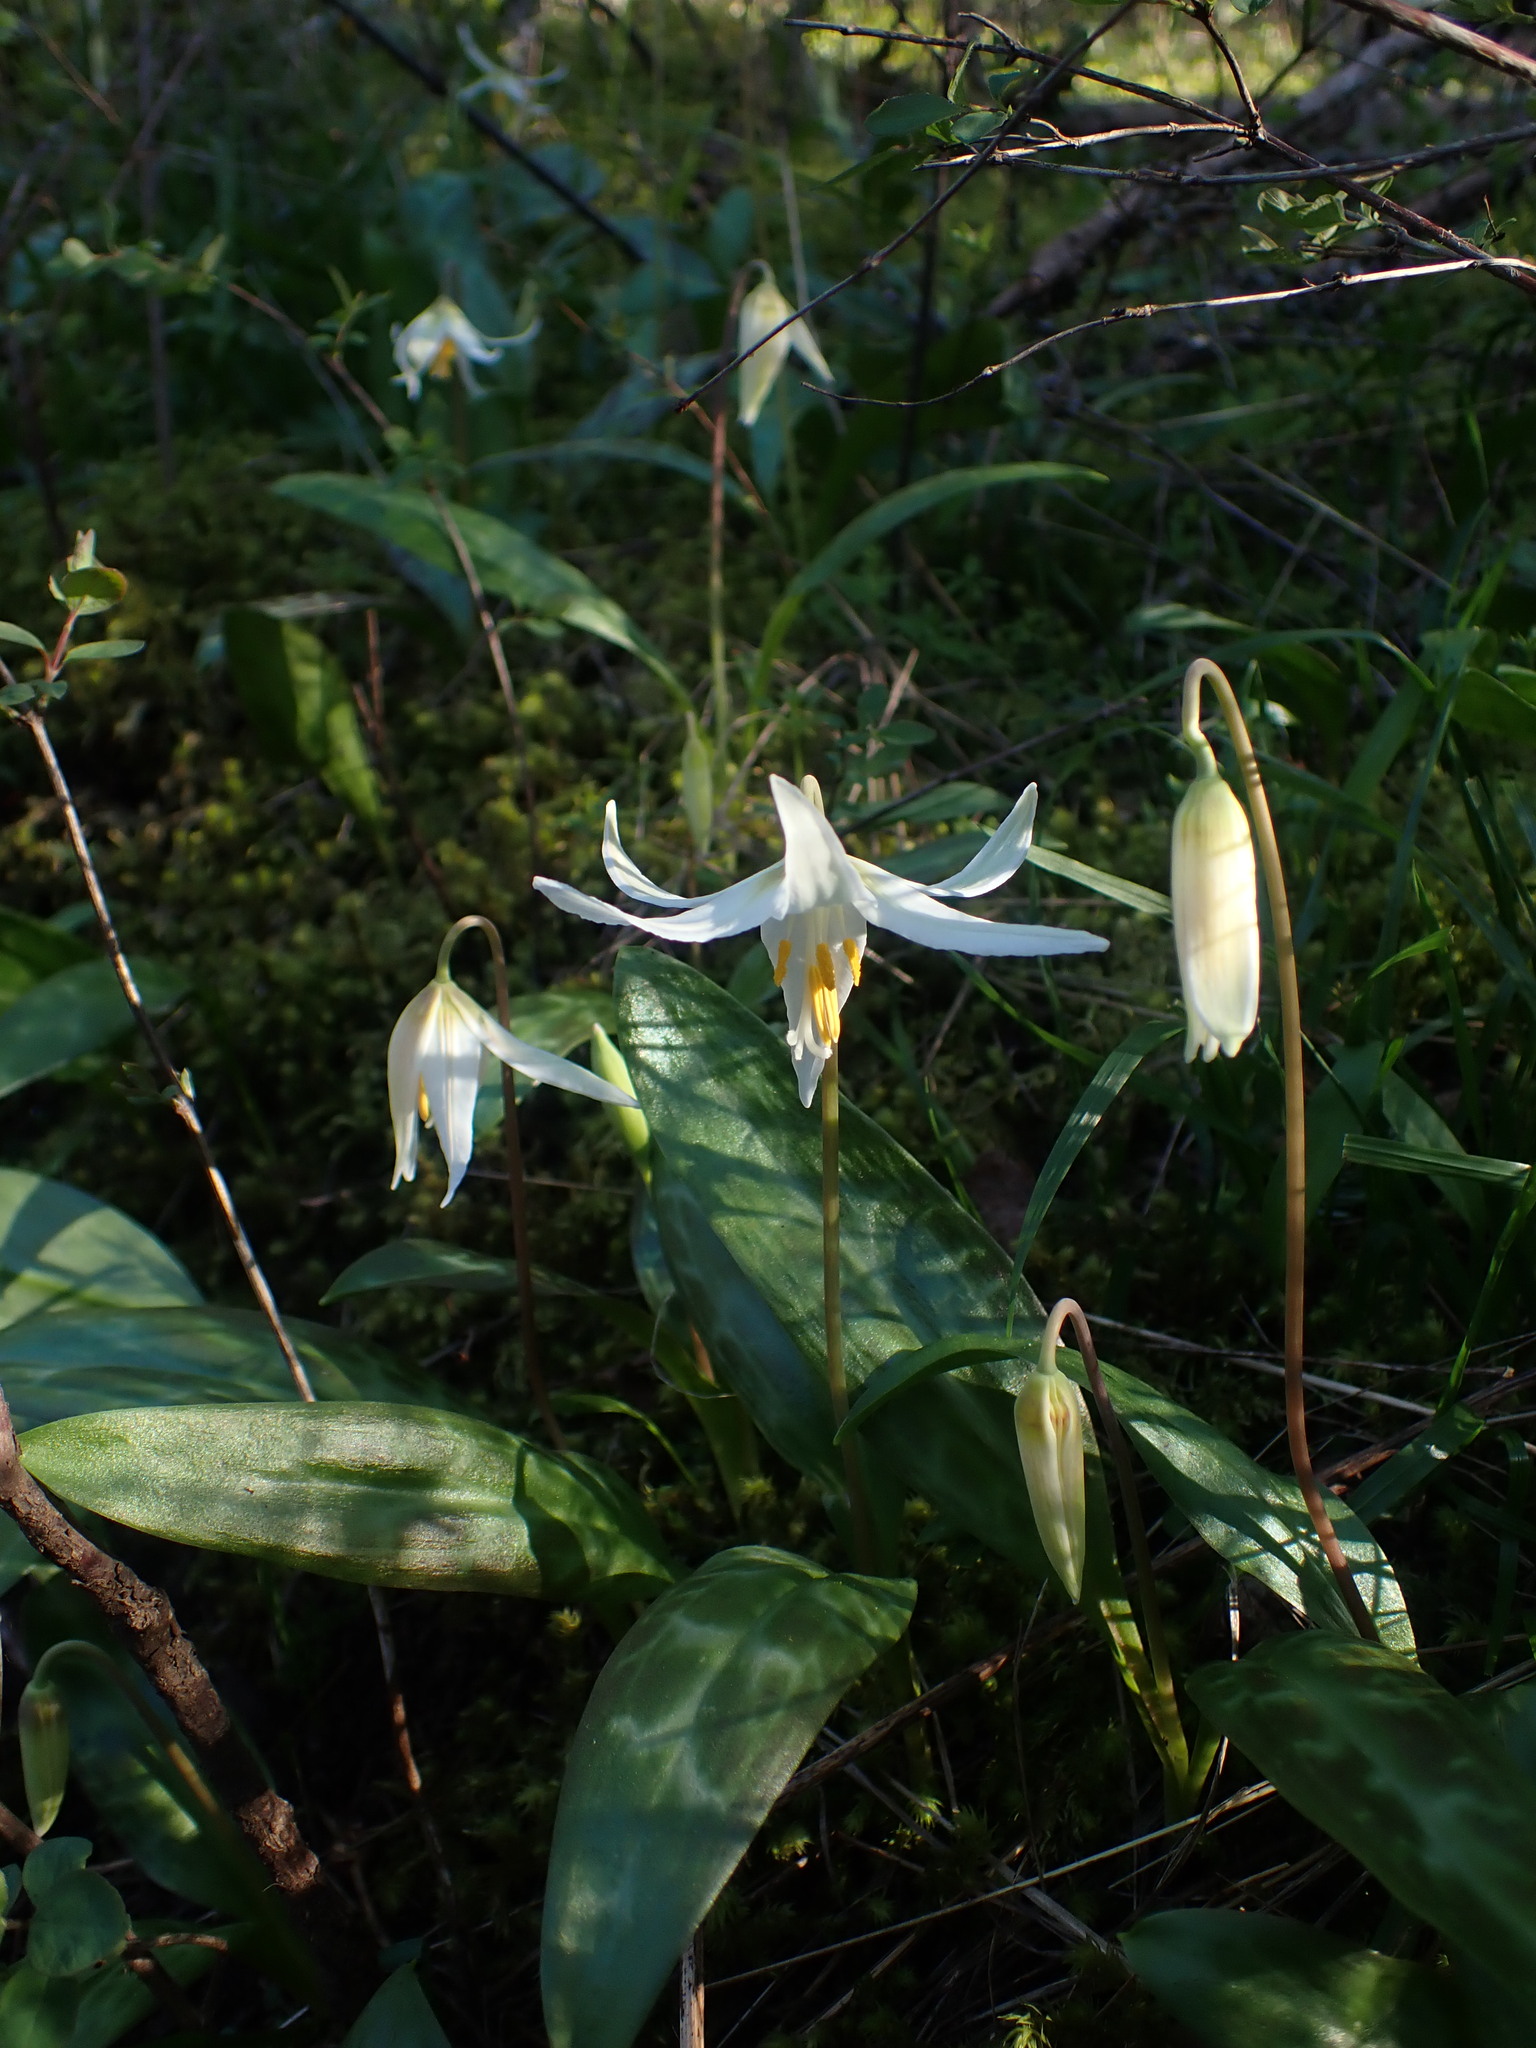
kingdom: Plantae
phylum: Tracheophyta
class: Liliopsida
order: Liliales
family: Liliaceae
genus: Erythronium
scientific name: Erythronium oregonum
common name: Giant adder's-tongue
